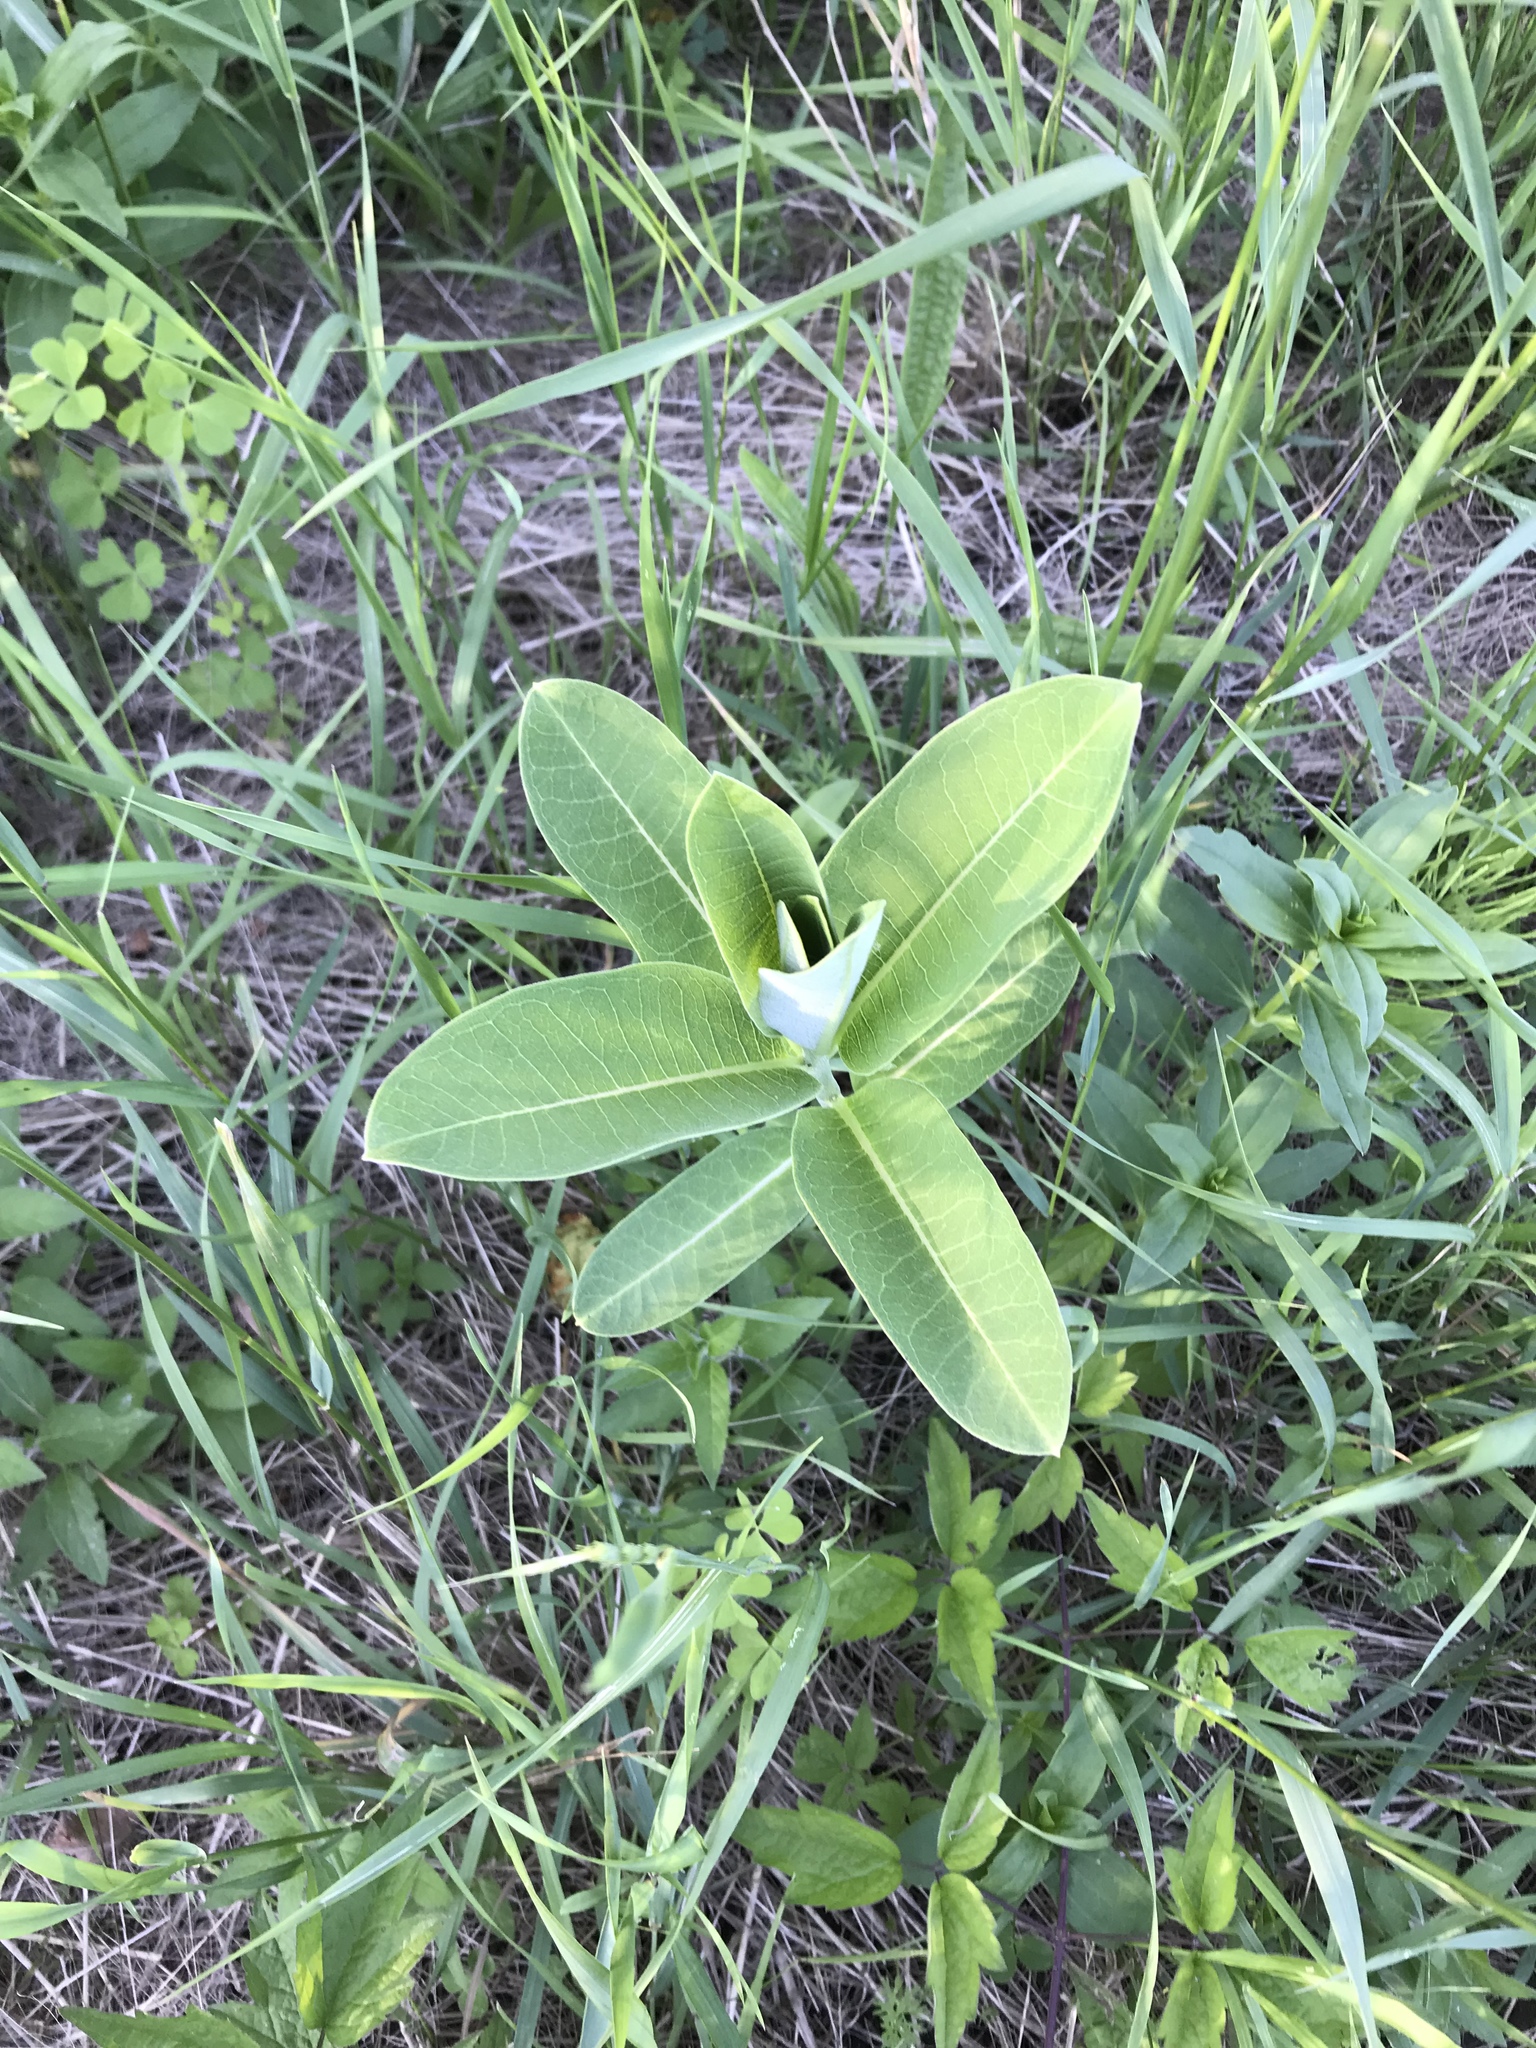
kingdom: Plantae
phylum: Tracheophyta
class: Magnoliopsida
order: Gentianales
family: Apocynaceae
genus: Asclepias
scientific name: Asclepias syriaca
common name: Common milkweed
